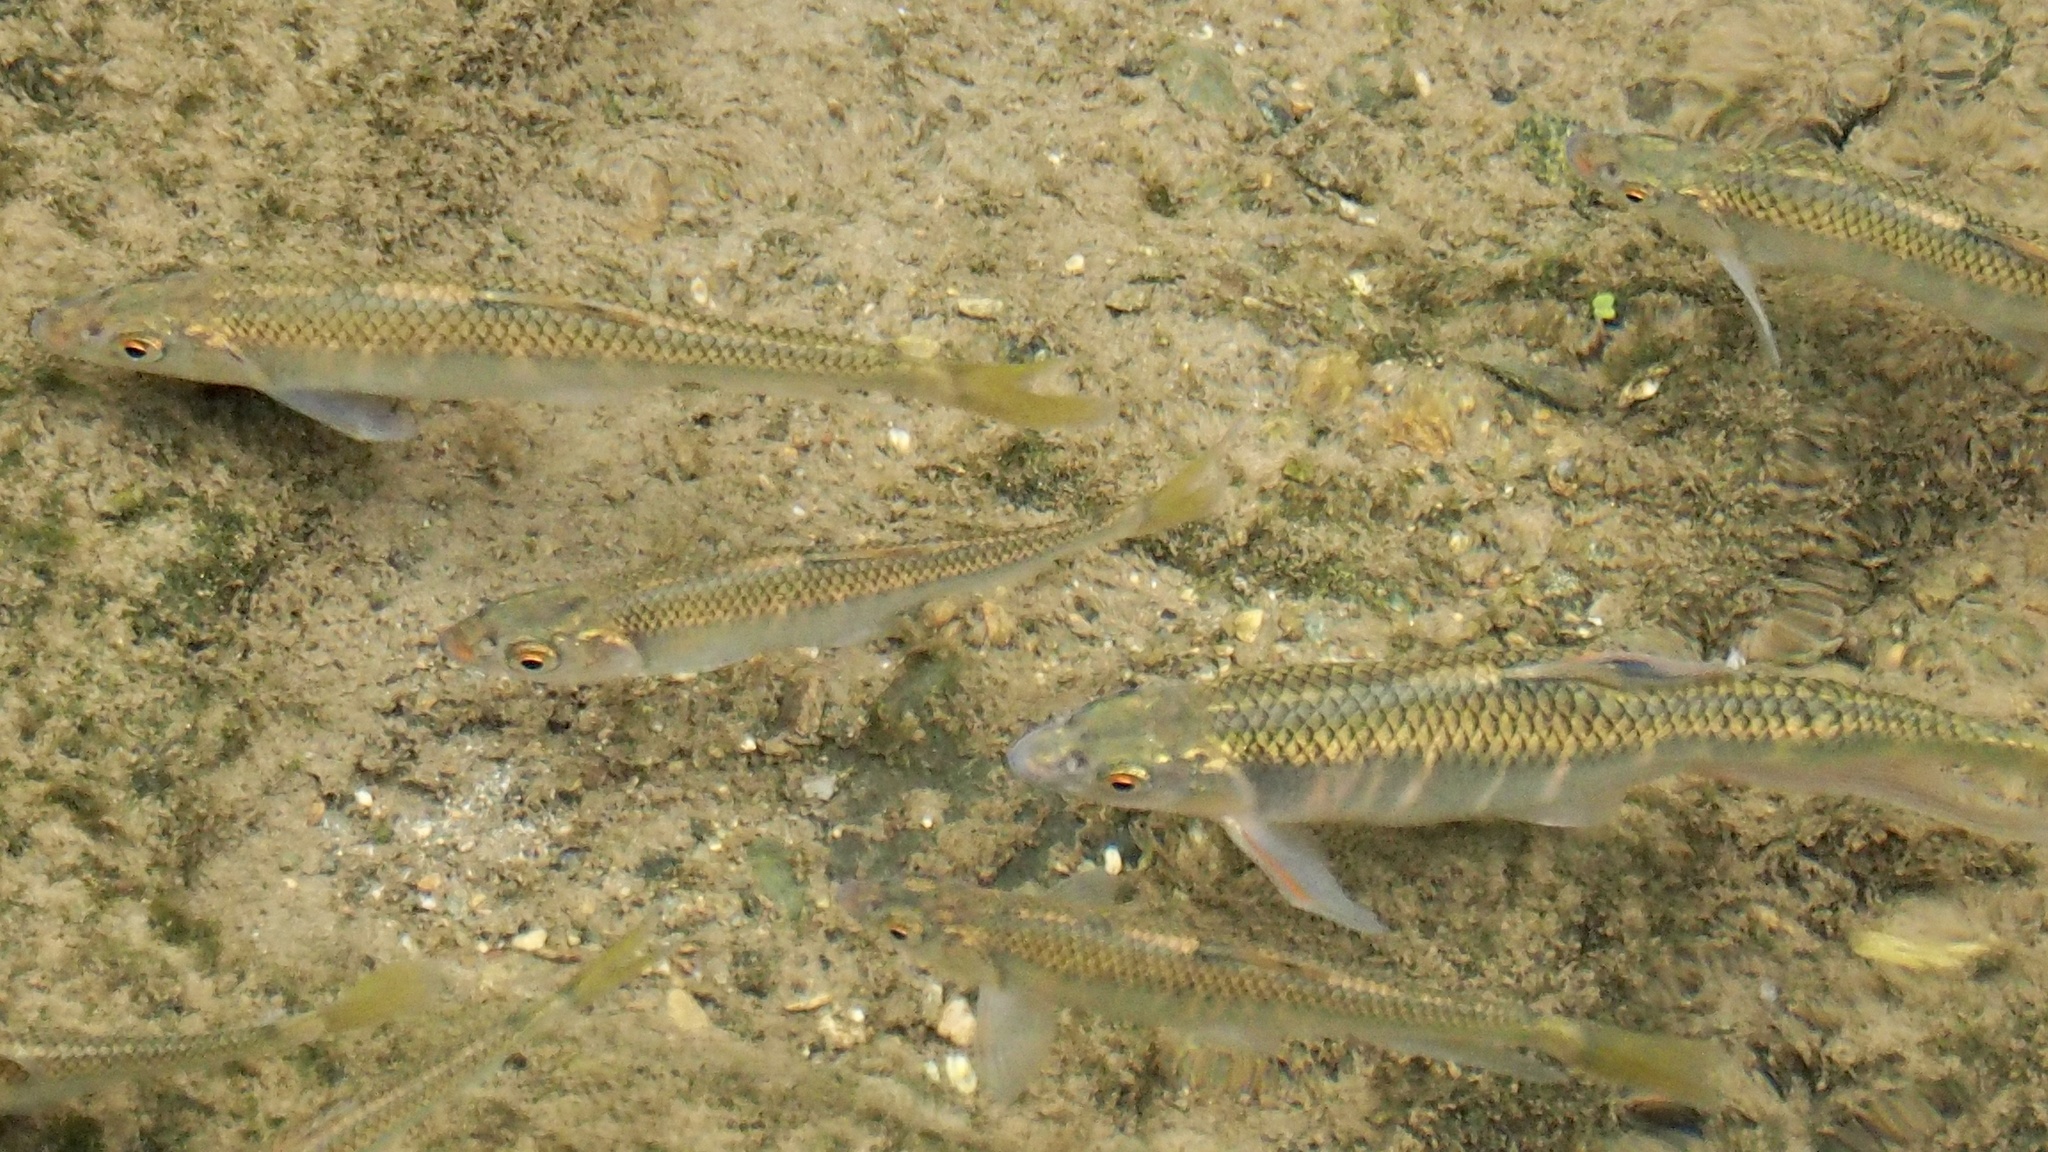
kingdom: Animalia
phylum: Chordata
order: Cypriniformes
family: Cyprinidae
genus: Zacco
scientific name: Zacco platypus
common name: Freshwater minnow
